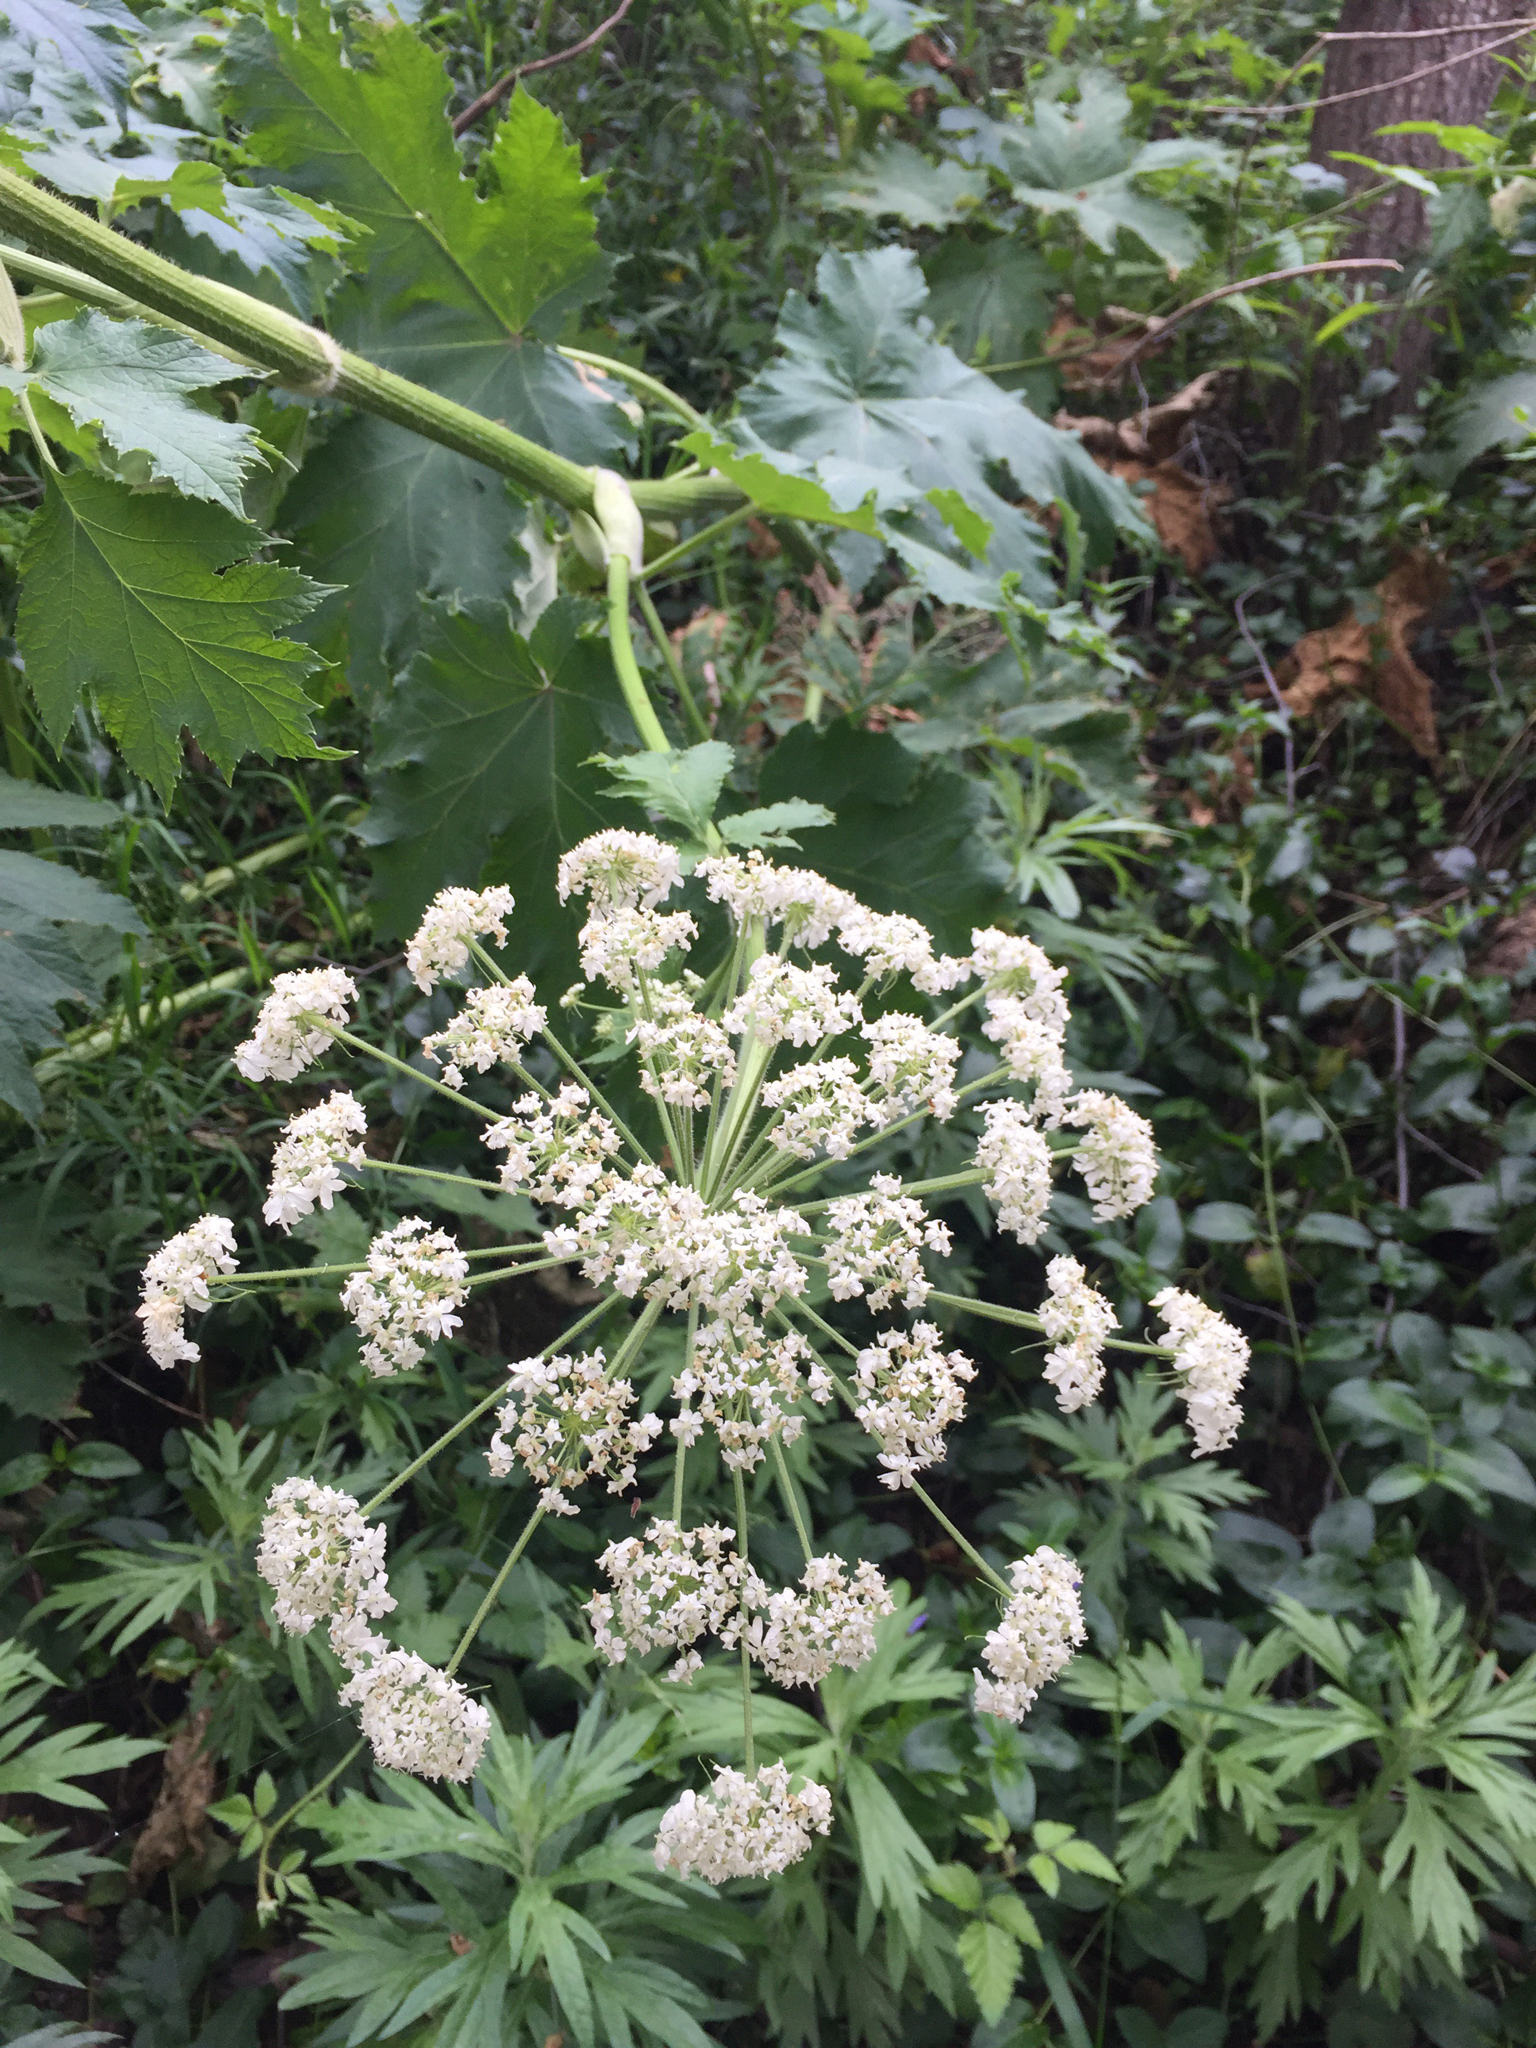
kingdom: Plantae
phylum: Tracheophyta
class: Magnoliopsida
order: Apiales
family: Apiaceae
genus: Heracleum
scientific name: Heracleum maximum
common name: American cow parsnip
